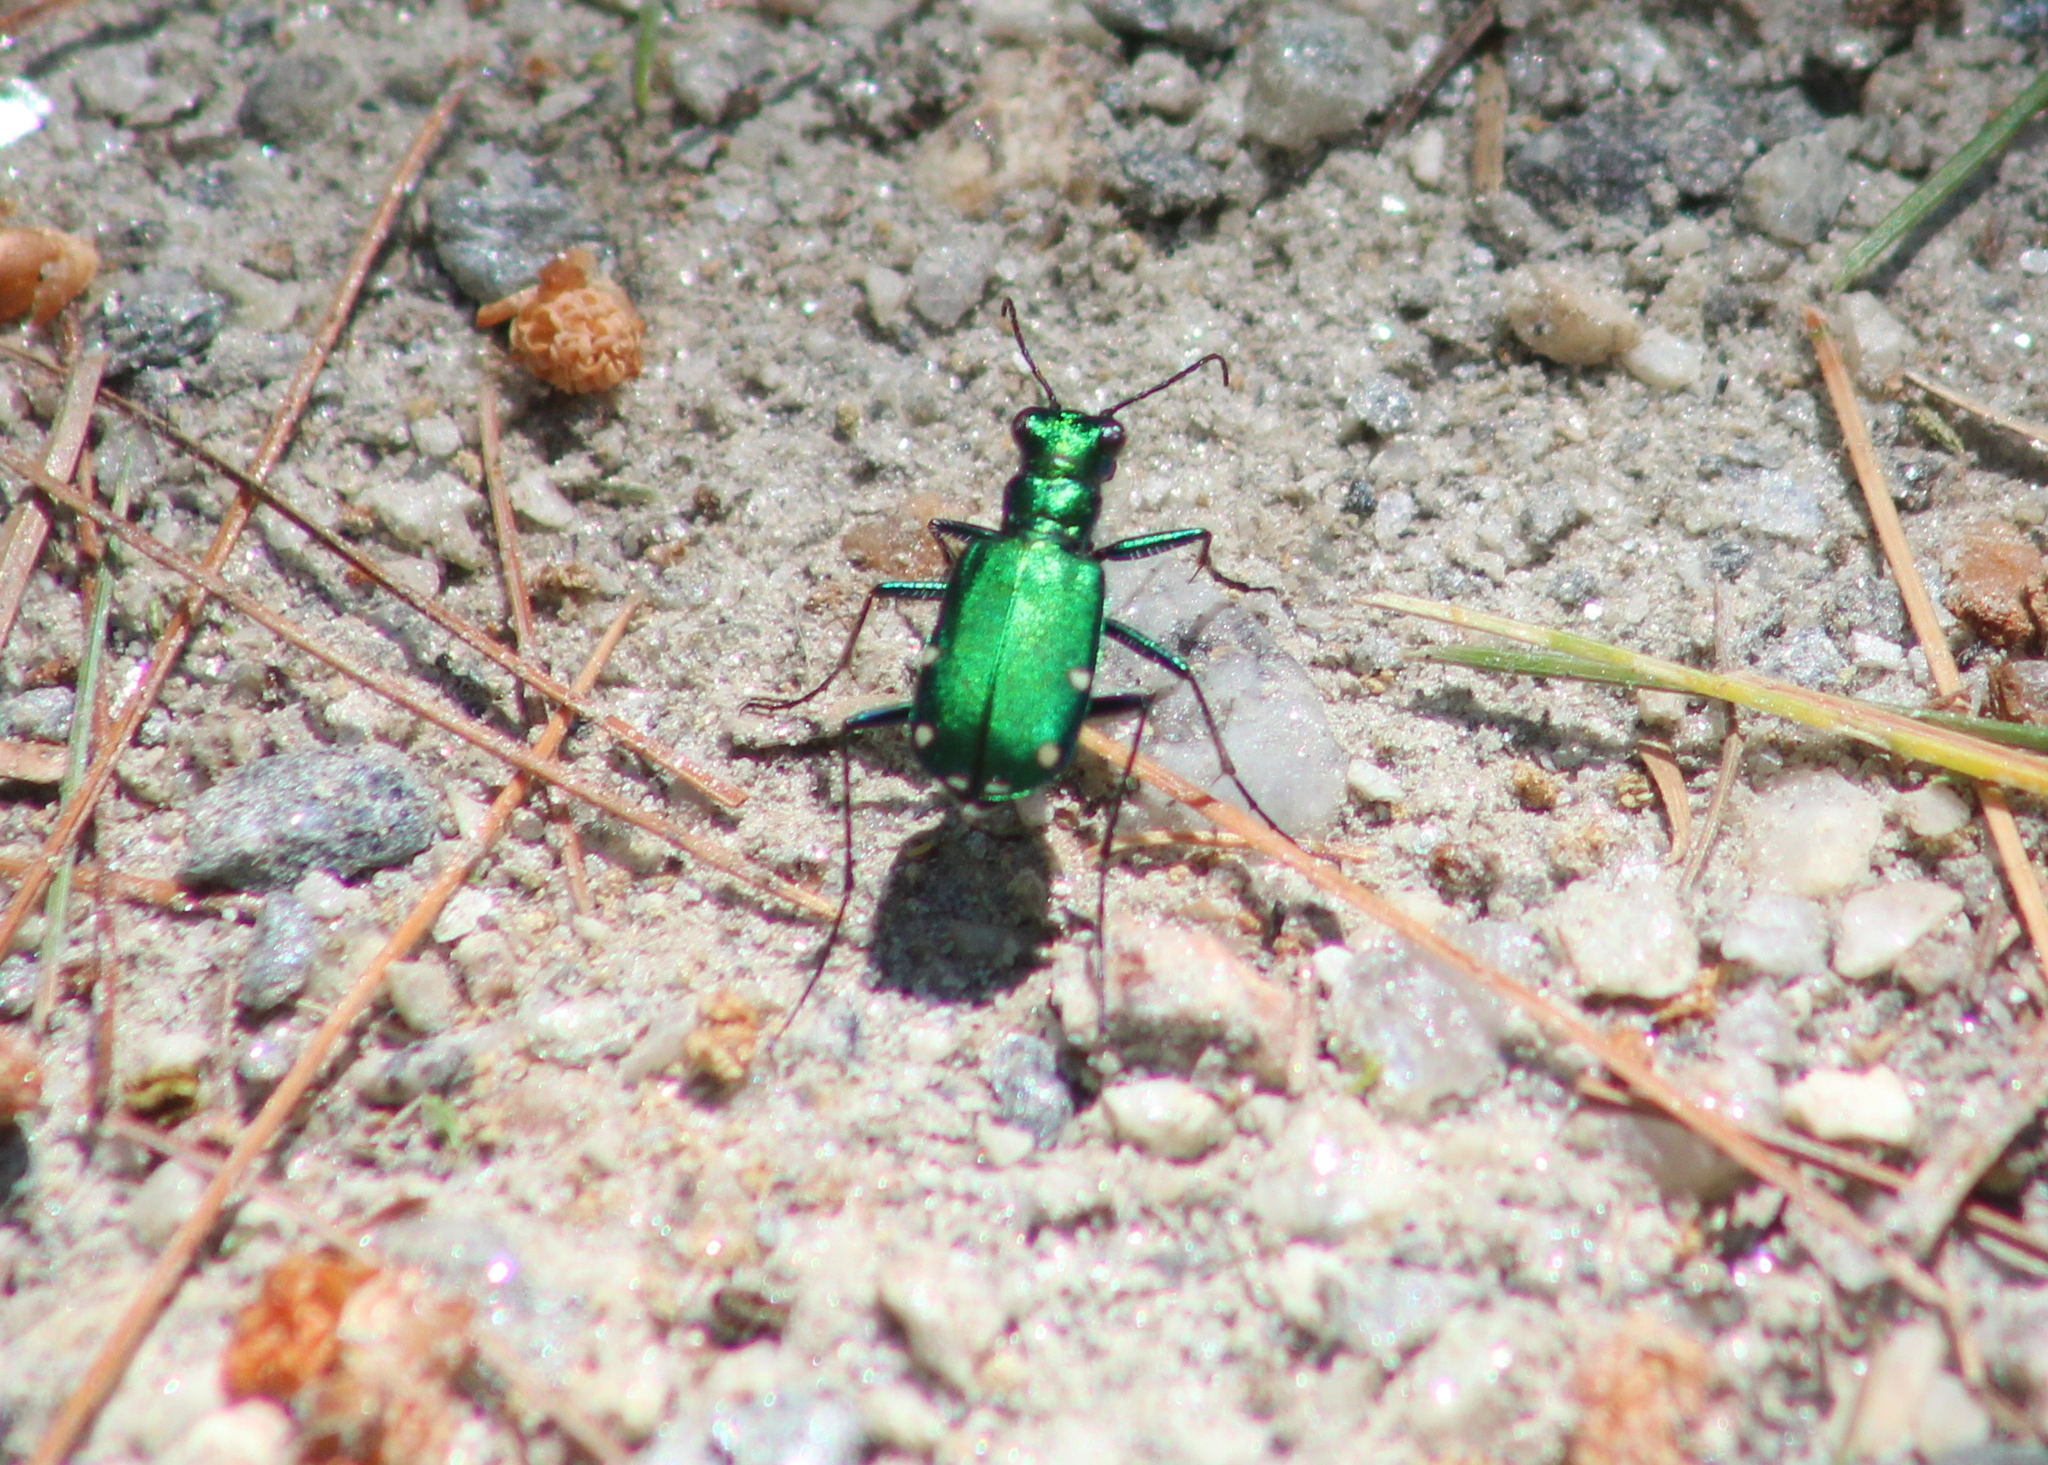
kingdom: Animalia
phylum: Arthropoda
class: Insecta
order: Coleoptera
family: Carabidae
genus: Cicindela
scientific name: Cicindela sexguttata
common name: Six-spotted tiger beetle
